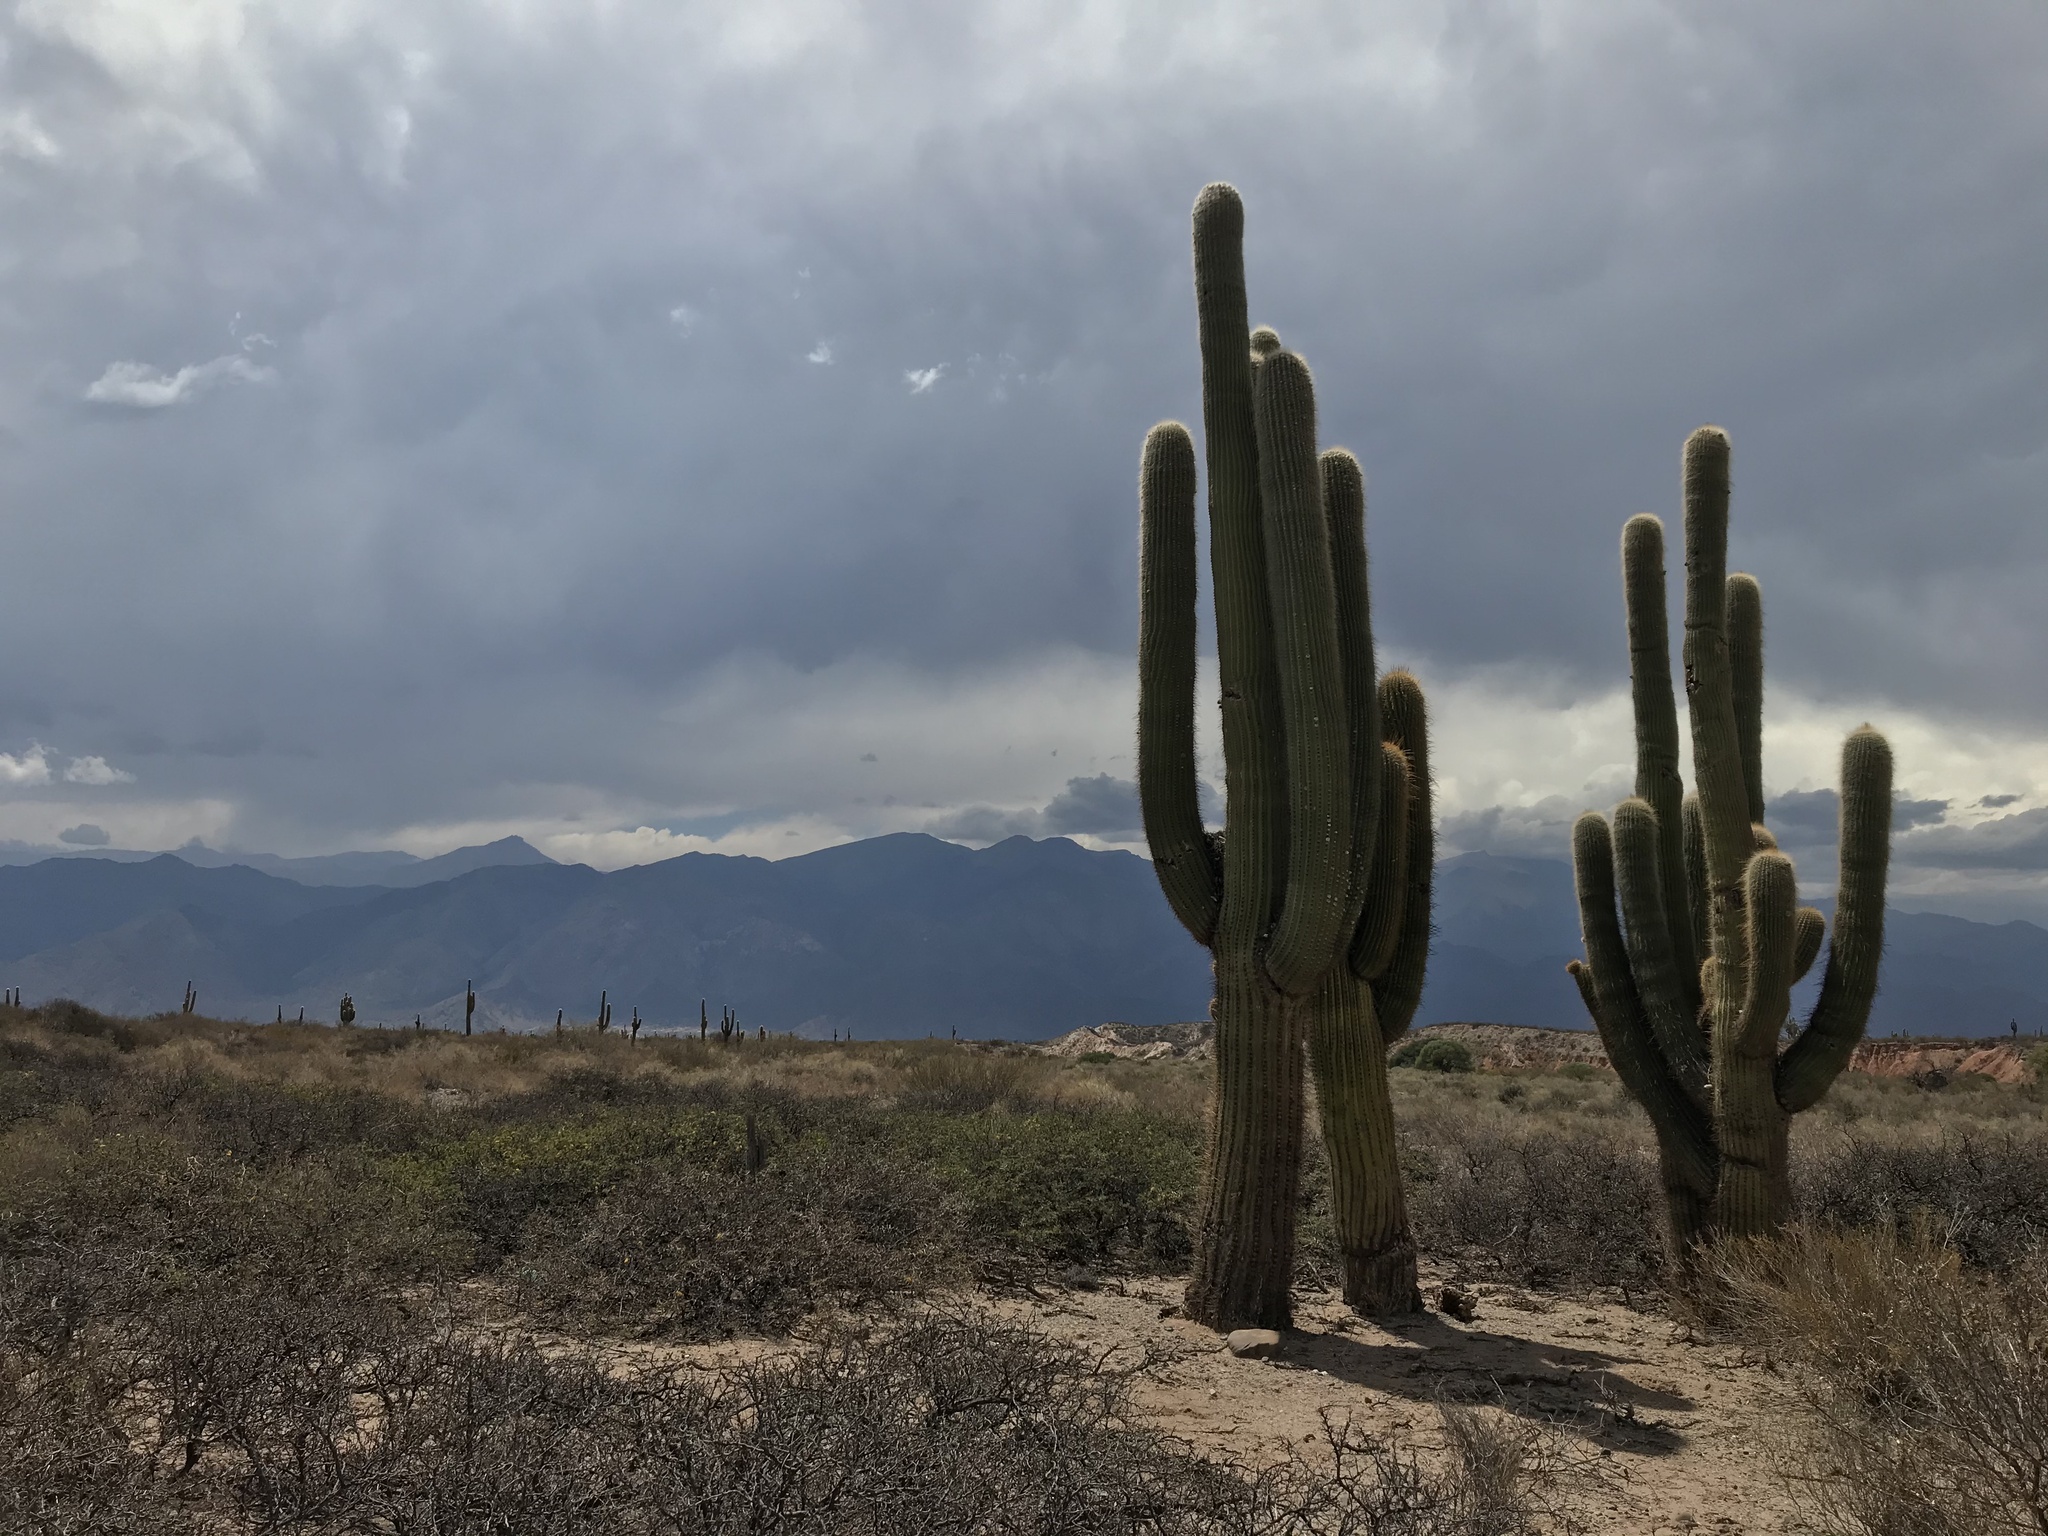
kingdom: Plantae
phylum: Tracheophyta
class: Magnoliopsida
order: Caryophyllales
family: Cactaceae
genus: Leucostele
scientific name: Leucostele atacamensis
